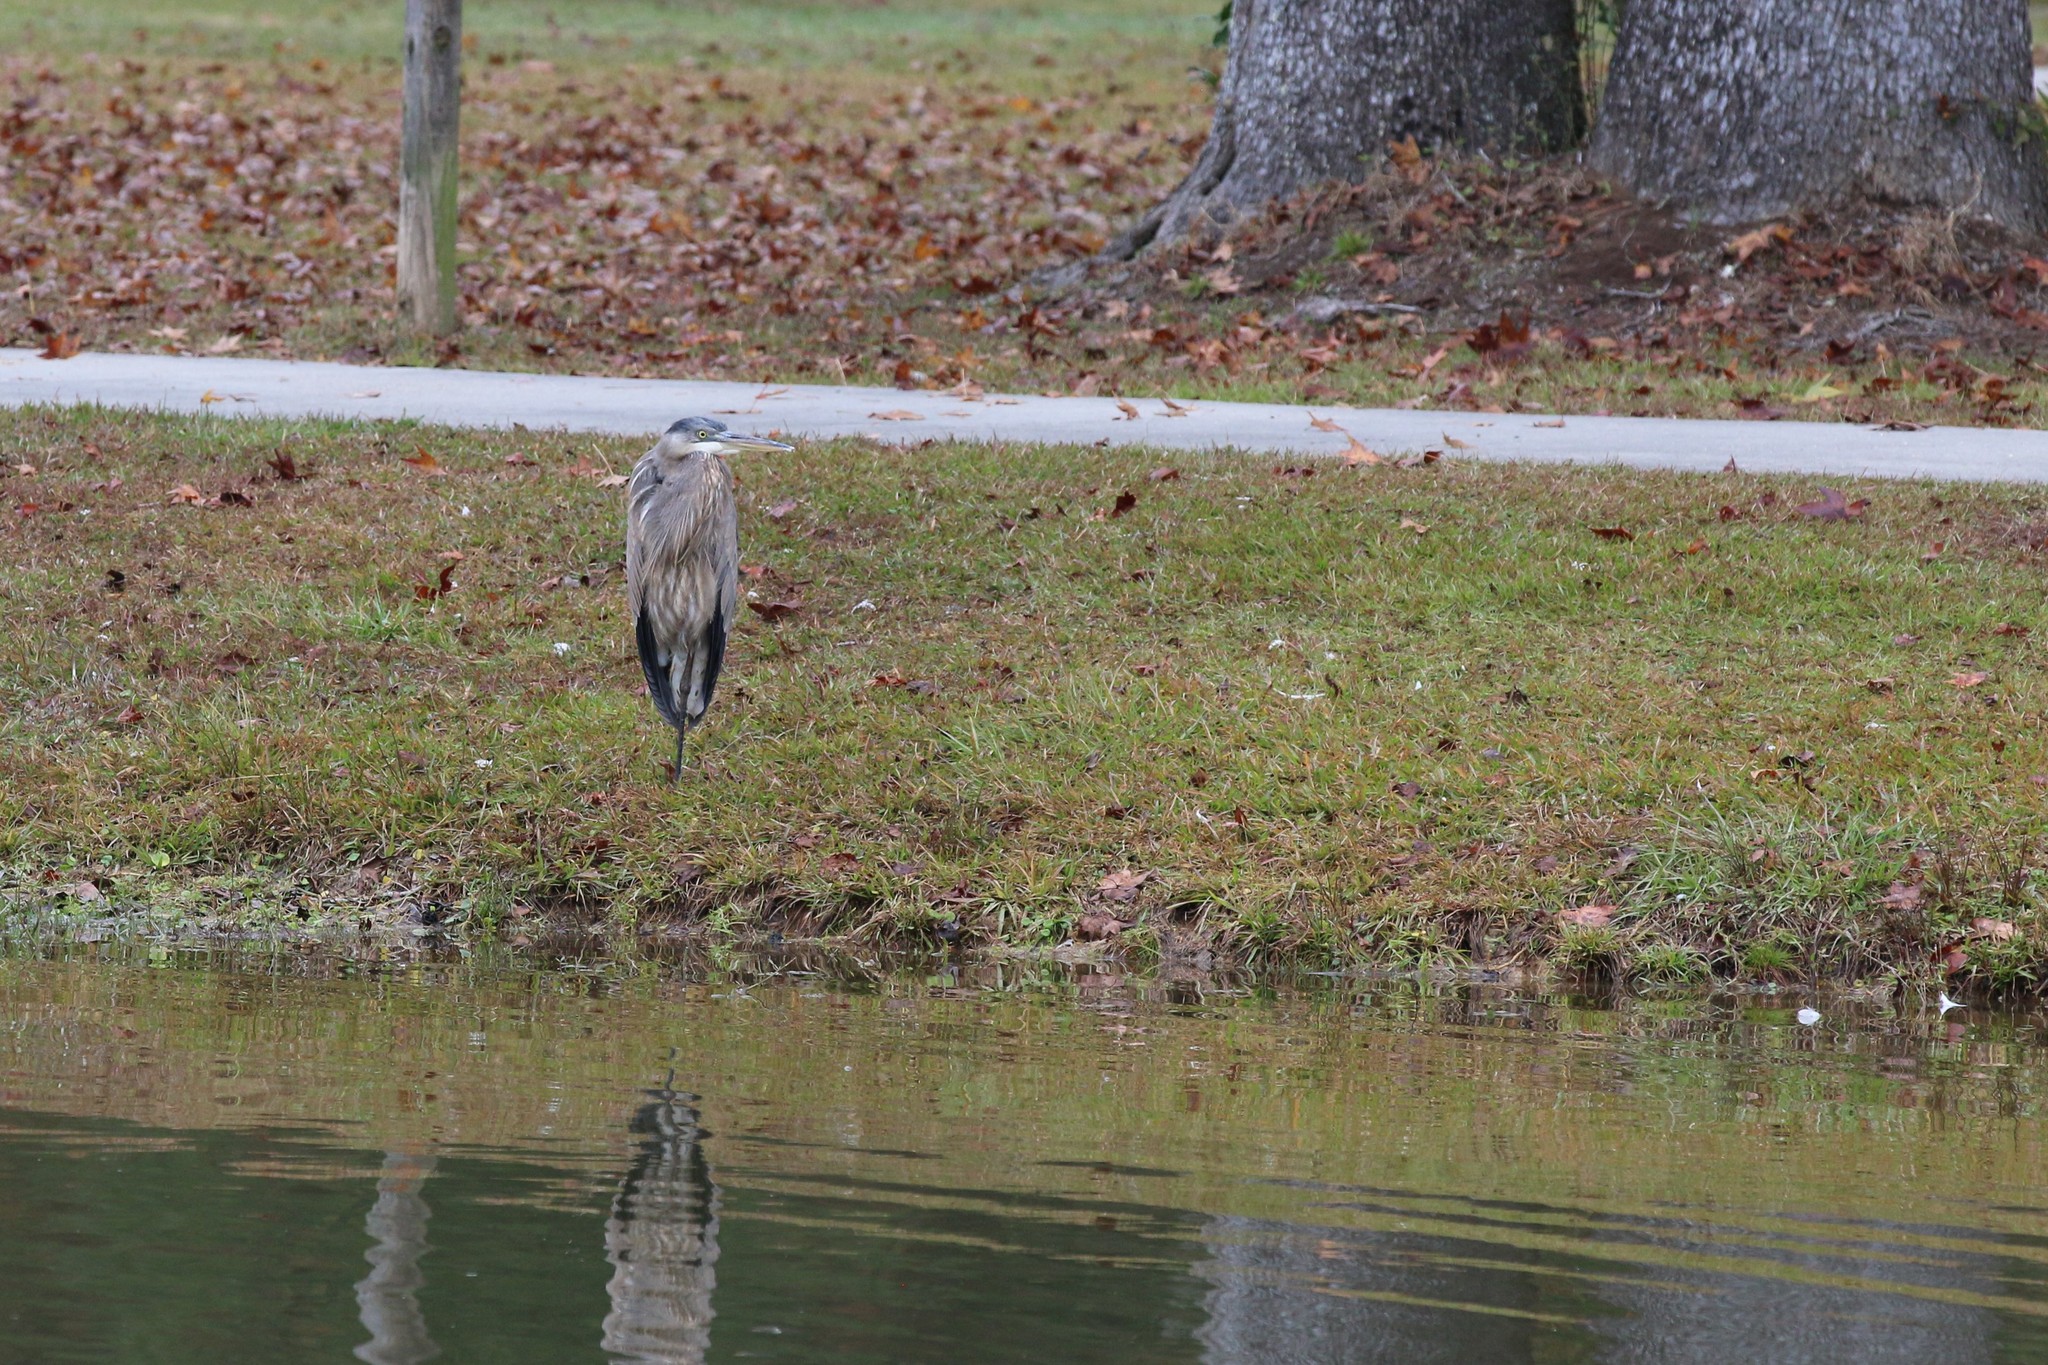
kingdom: Animalia
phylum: Chordata
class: Aves
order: Pelecaniformes
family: Ardeidae
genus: Ardea
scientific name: Ardea herodias
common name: Great blue heron
